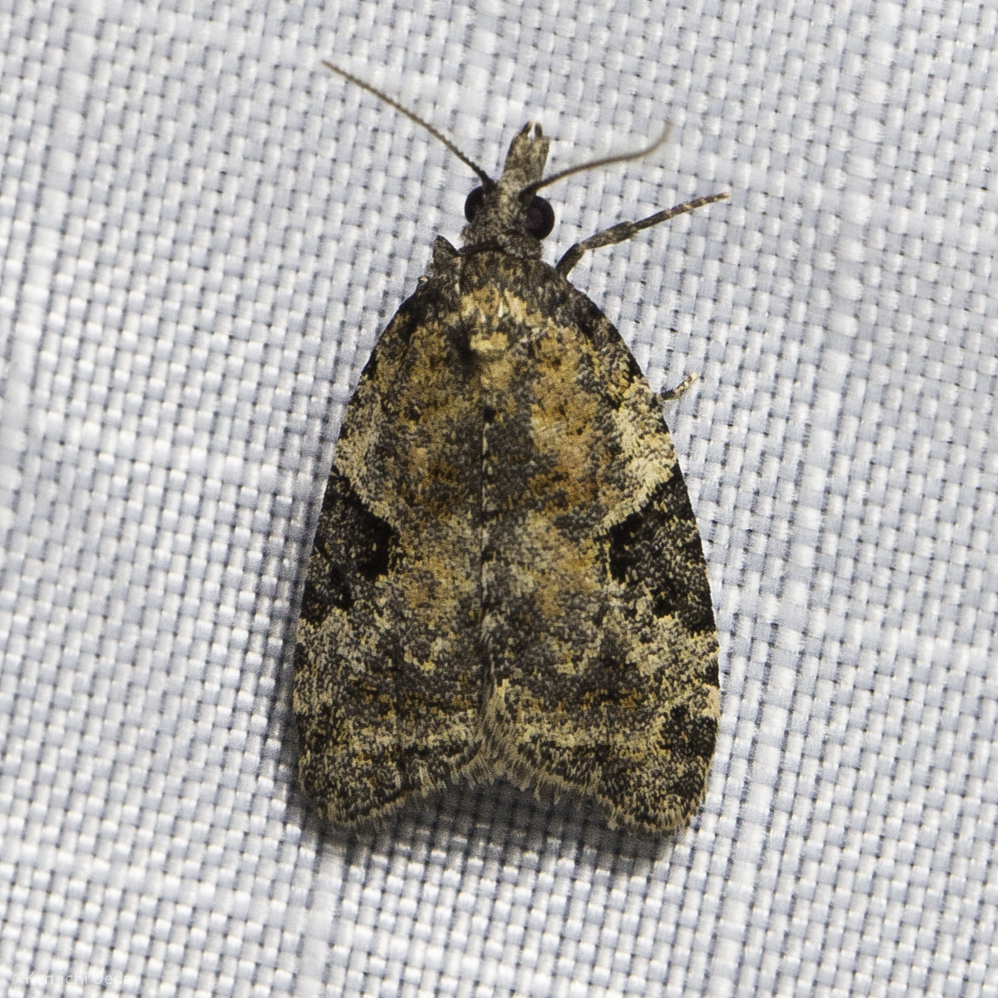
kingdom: Animalia
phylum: Arthropoda
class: Insecta
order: Lepidoptera
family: Tortricidae
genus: Anopina
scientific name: Anopina triangulana
